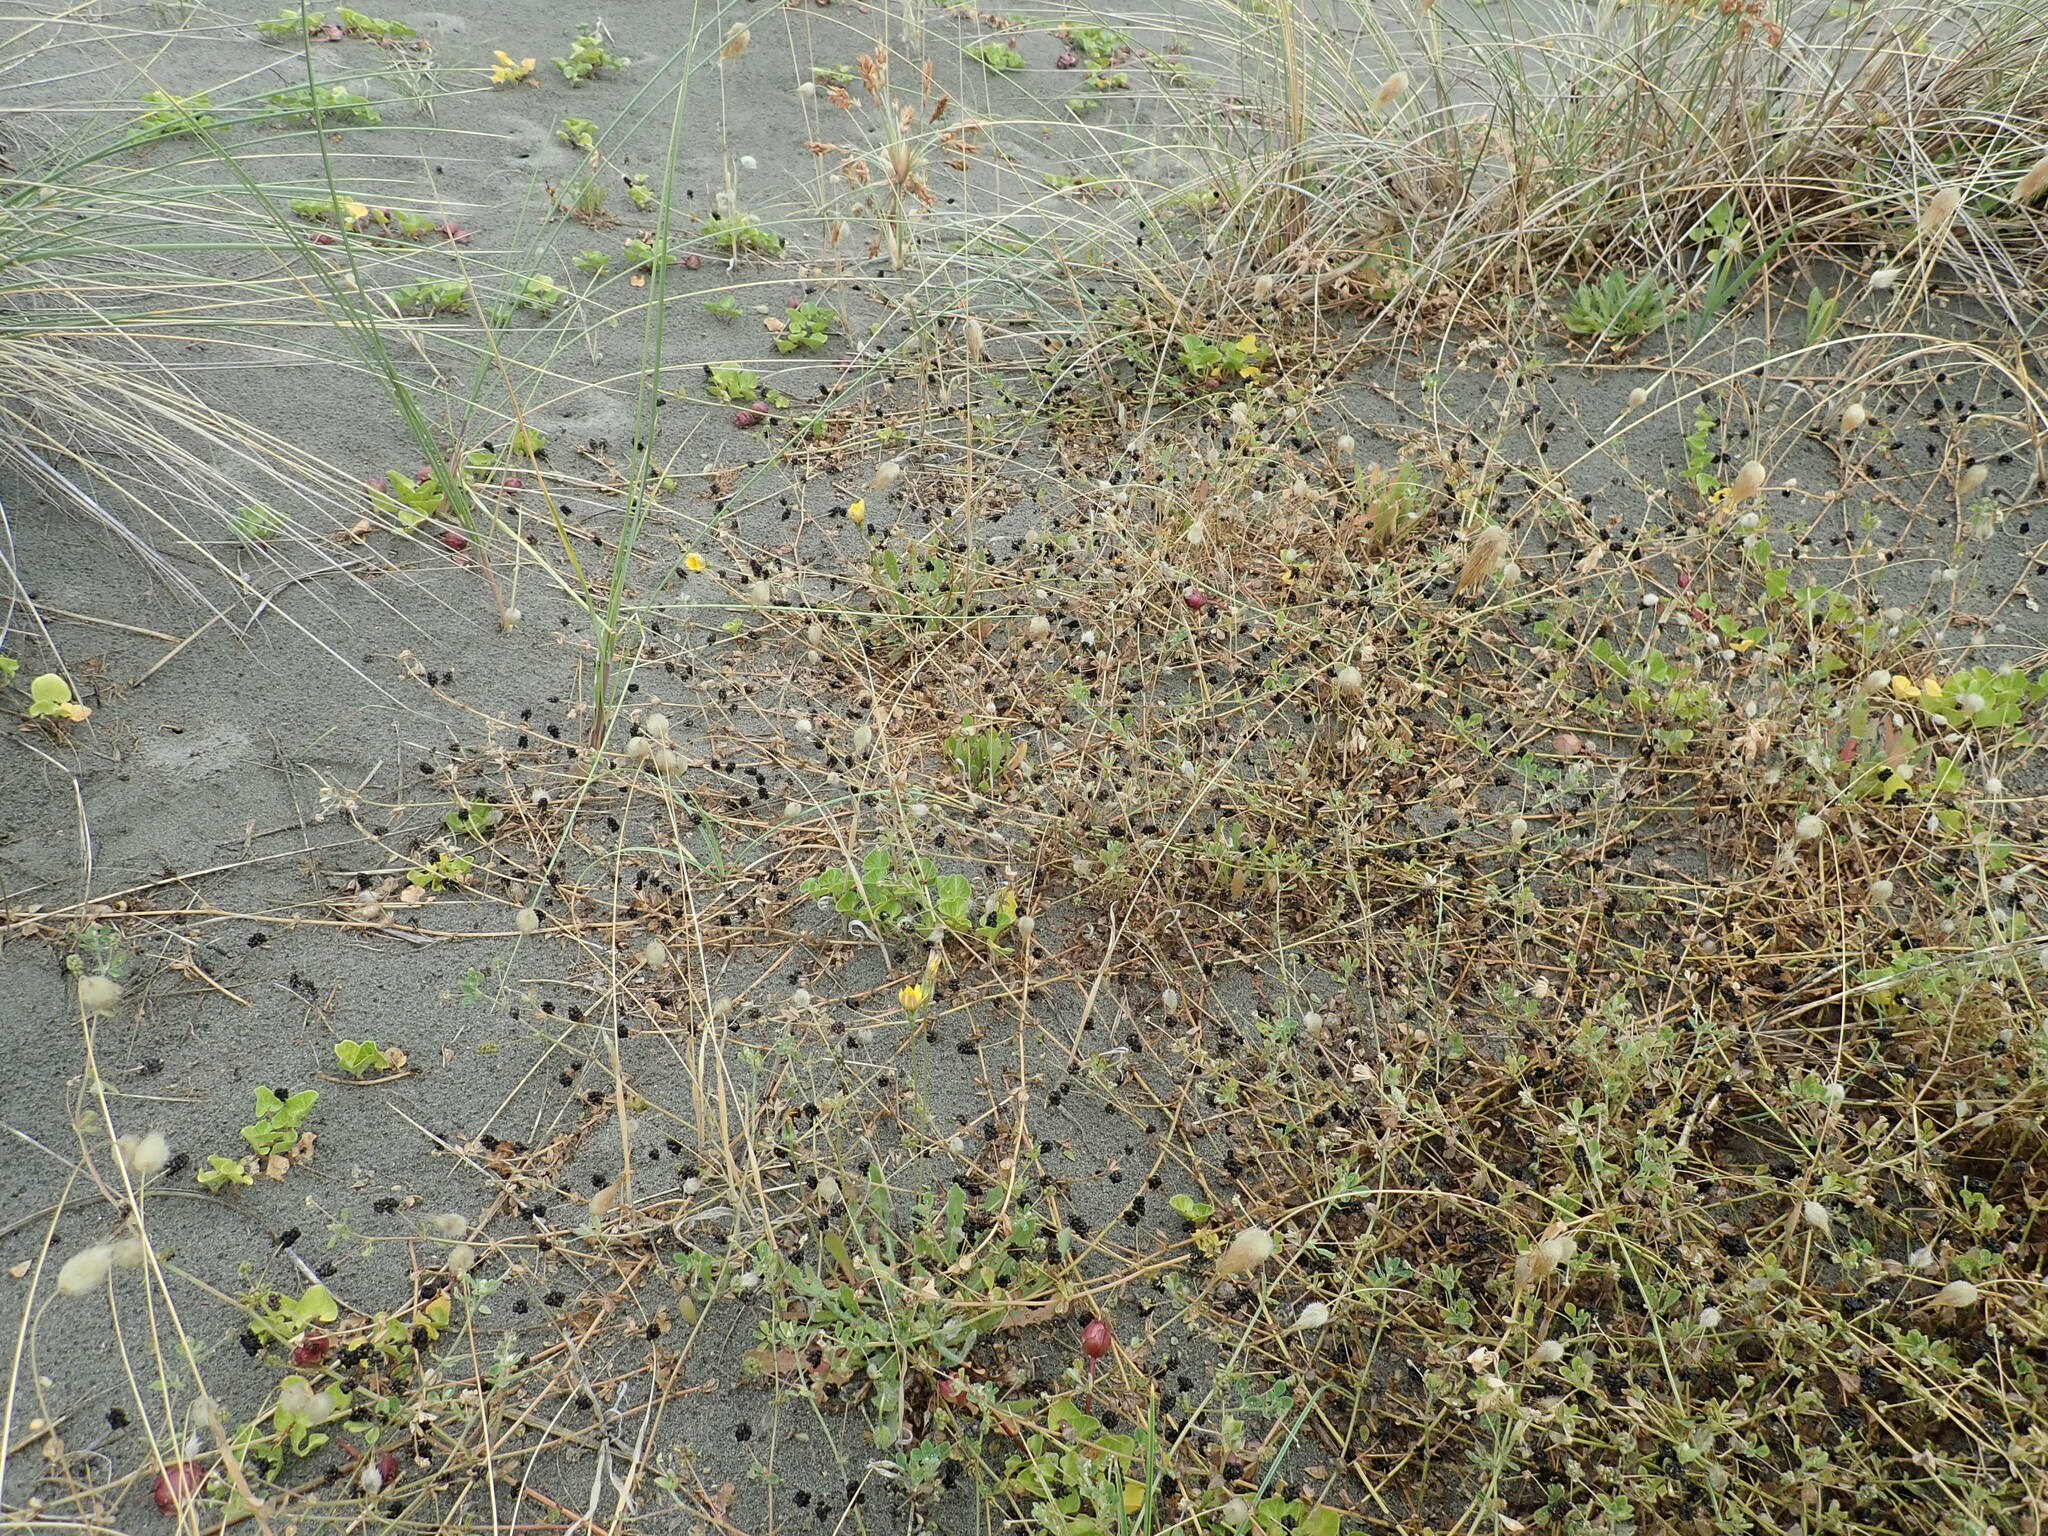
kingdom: Plantae
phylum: Tracheophyta
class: Magnoliopsida
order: Fabales
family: Fabaceae
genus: Medicago
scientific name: Medicago lupulina
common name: Black medick
